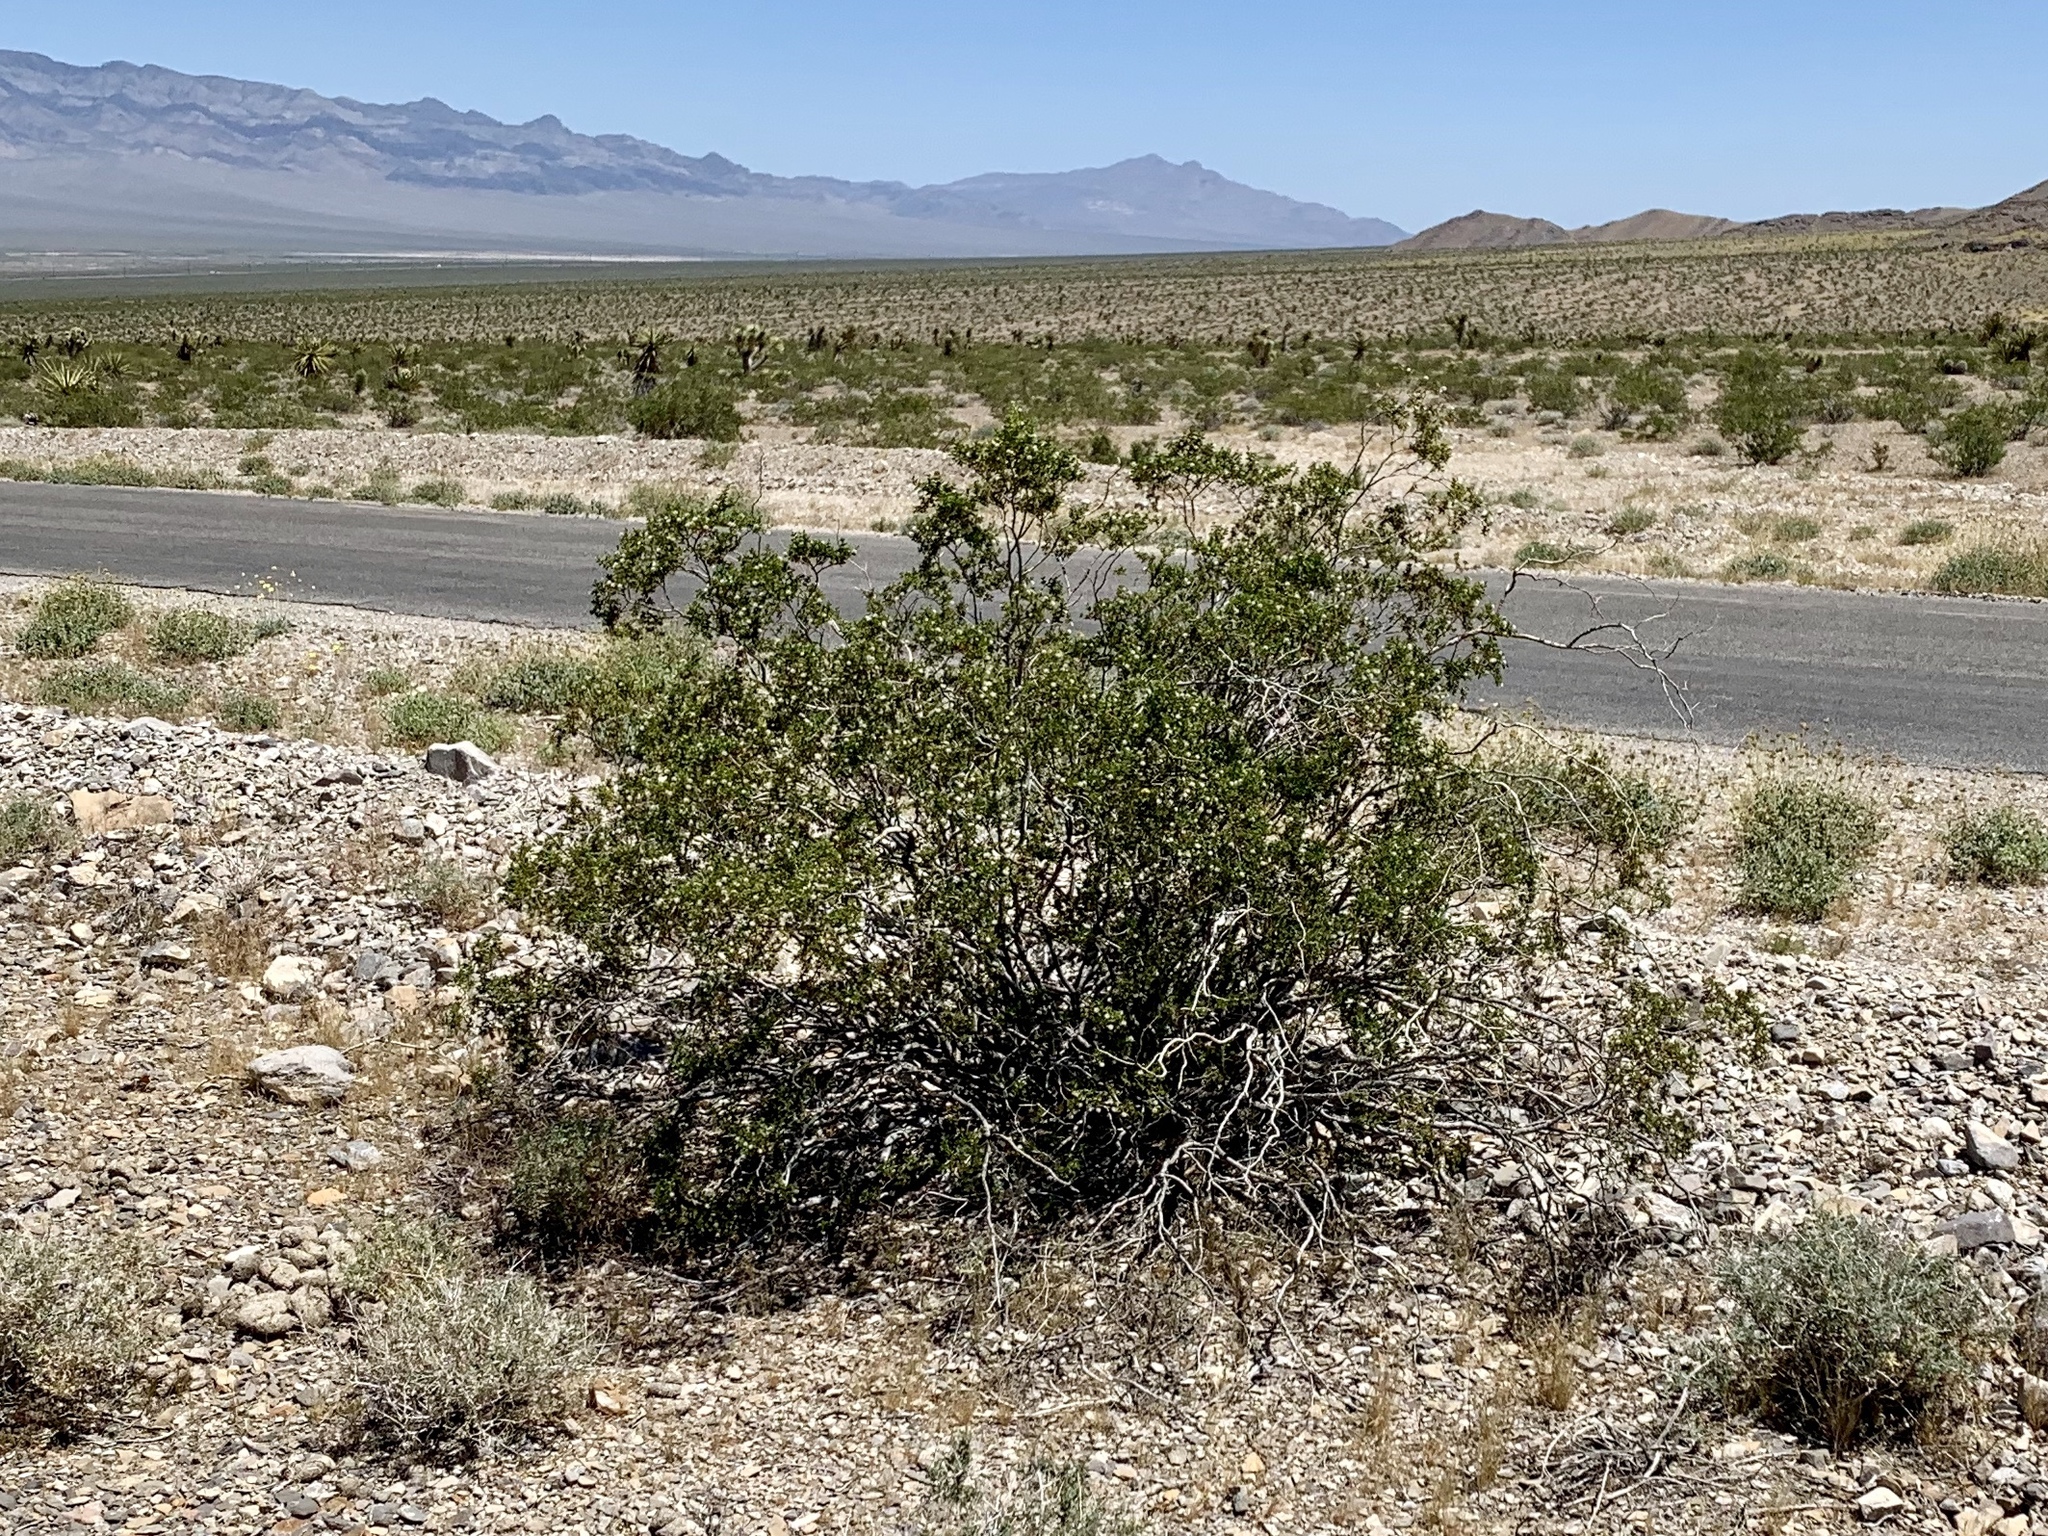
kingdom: Plantae
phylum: Tracheophyta
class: Magnoliopsida
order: Zygophyllales
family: Zygophyllaceae
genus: Larrea
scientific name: Larrea tridentata
